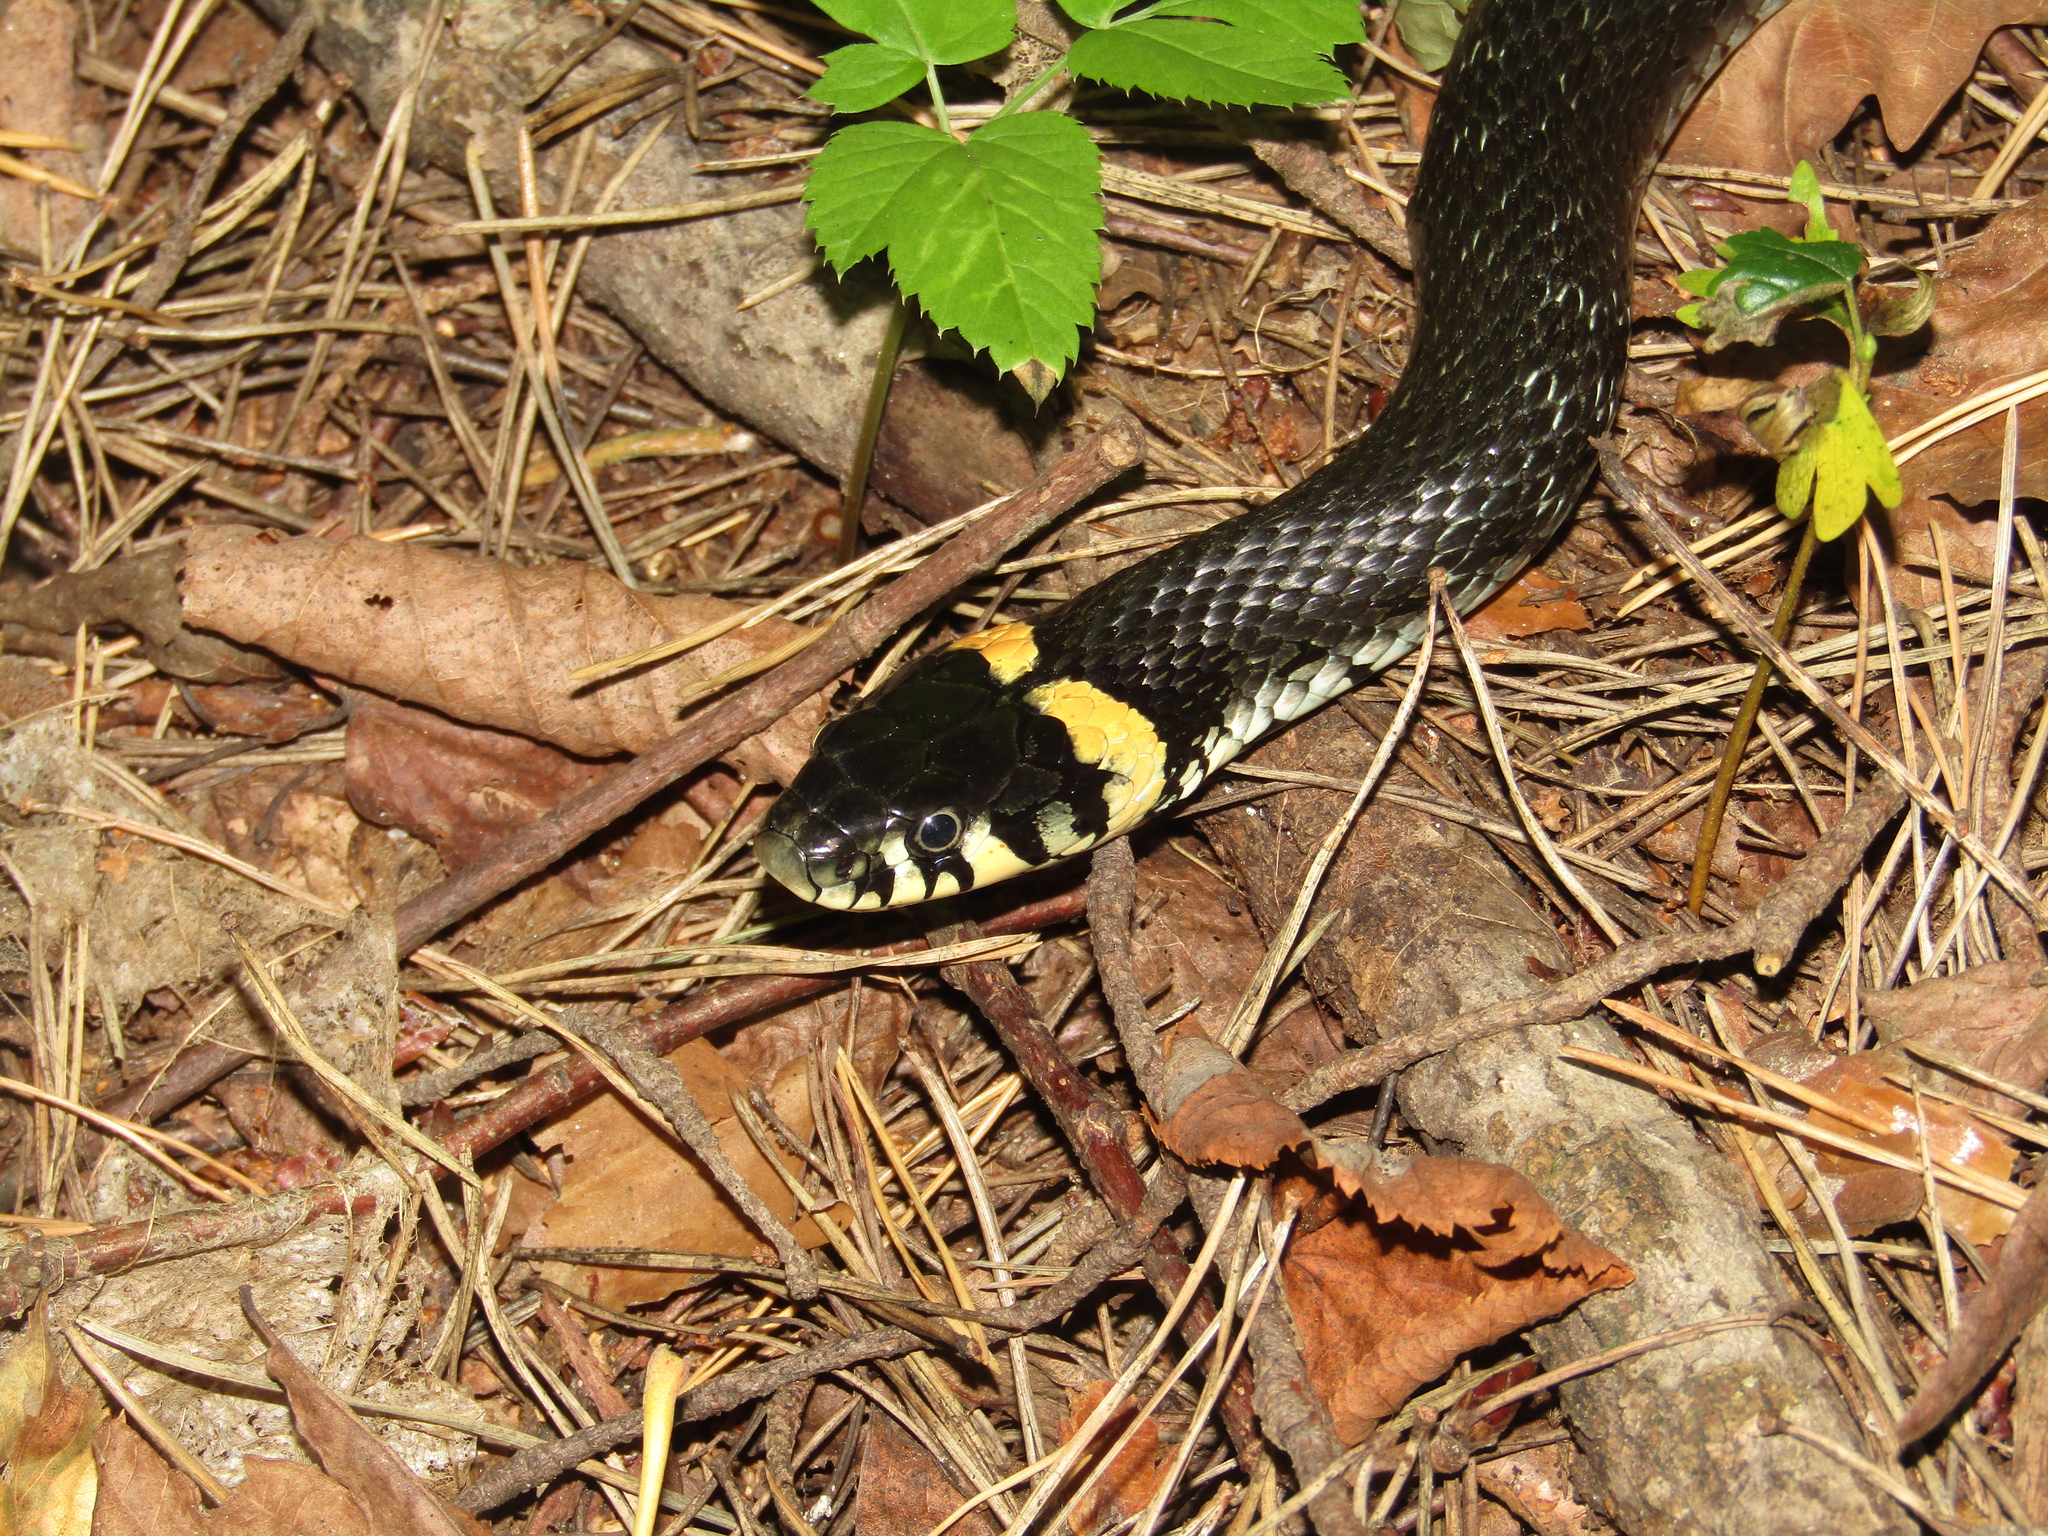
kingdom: Animalia
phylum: Chordata
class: Squamata
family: Colubridae
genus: Natrix
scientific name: Natrix natrix
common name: Grass snake
